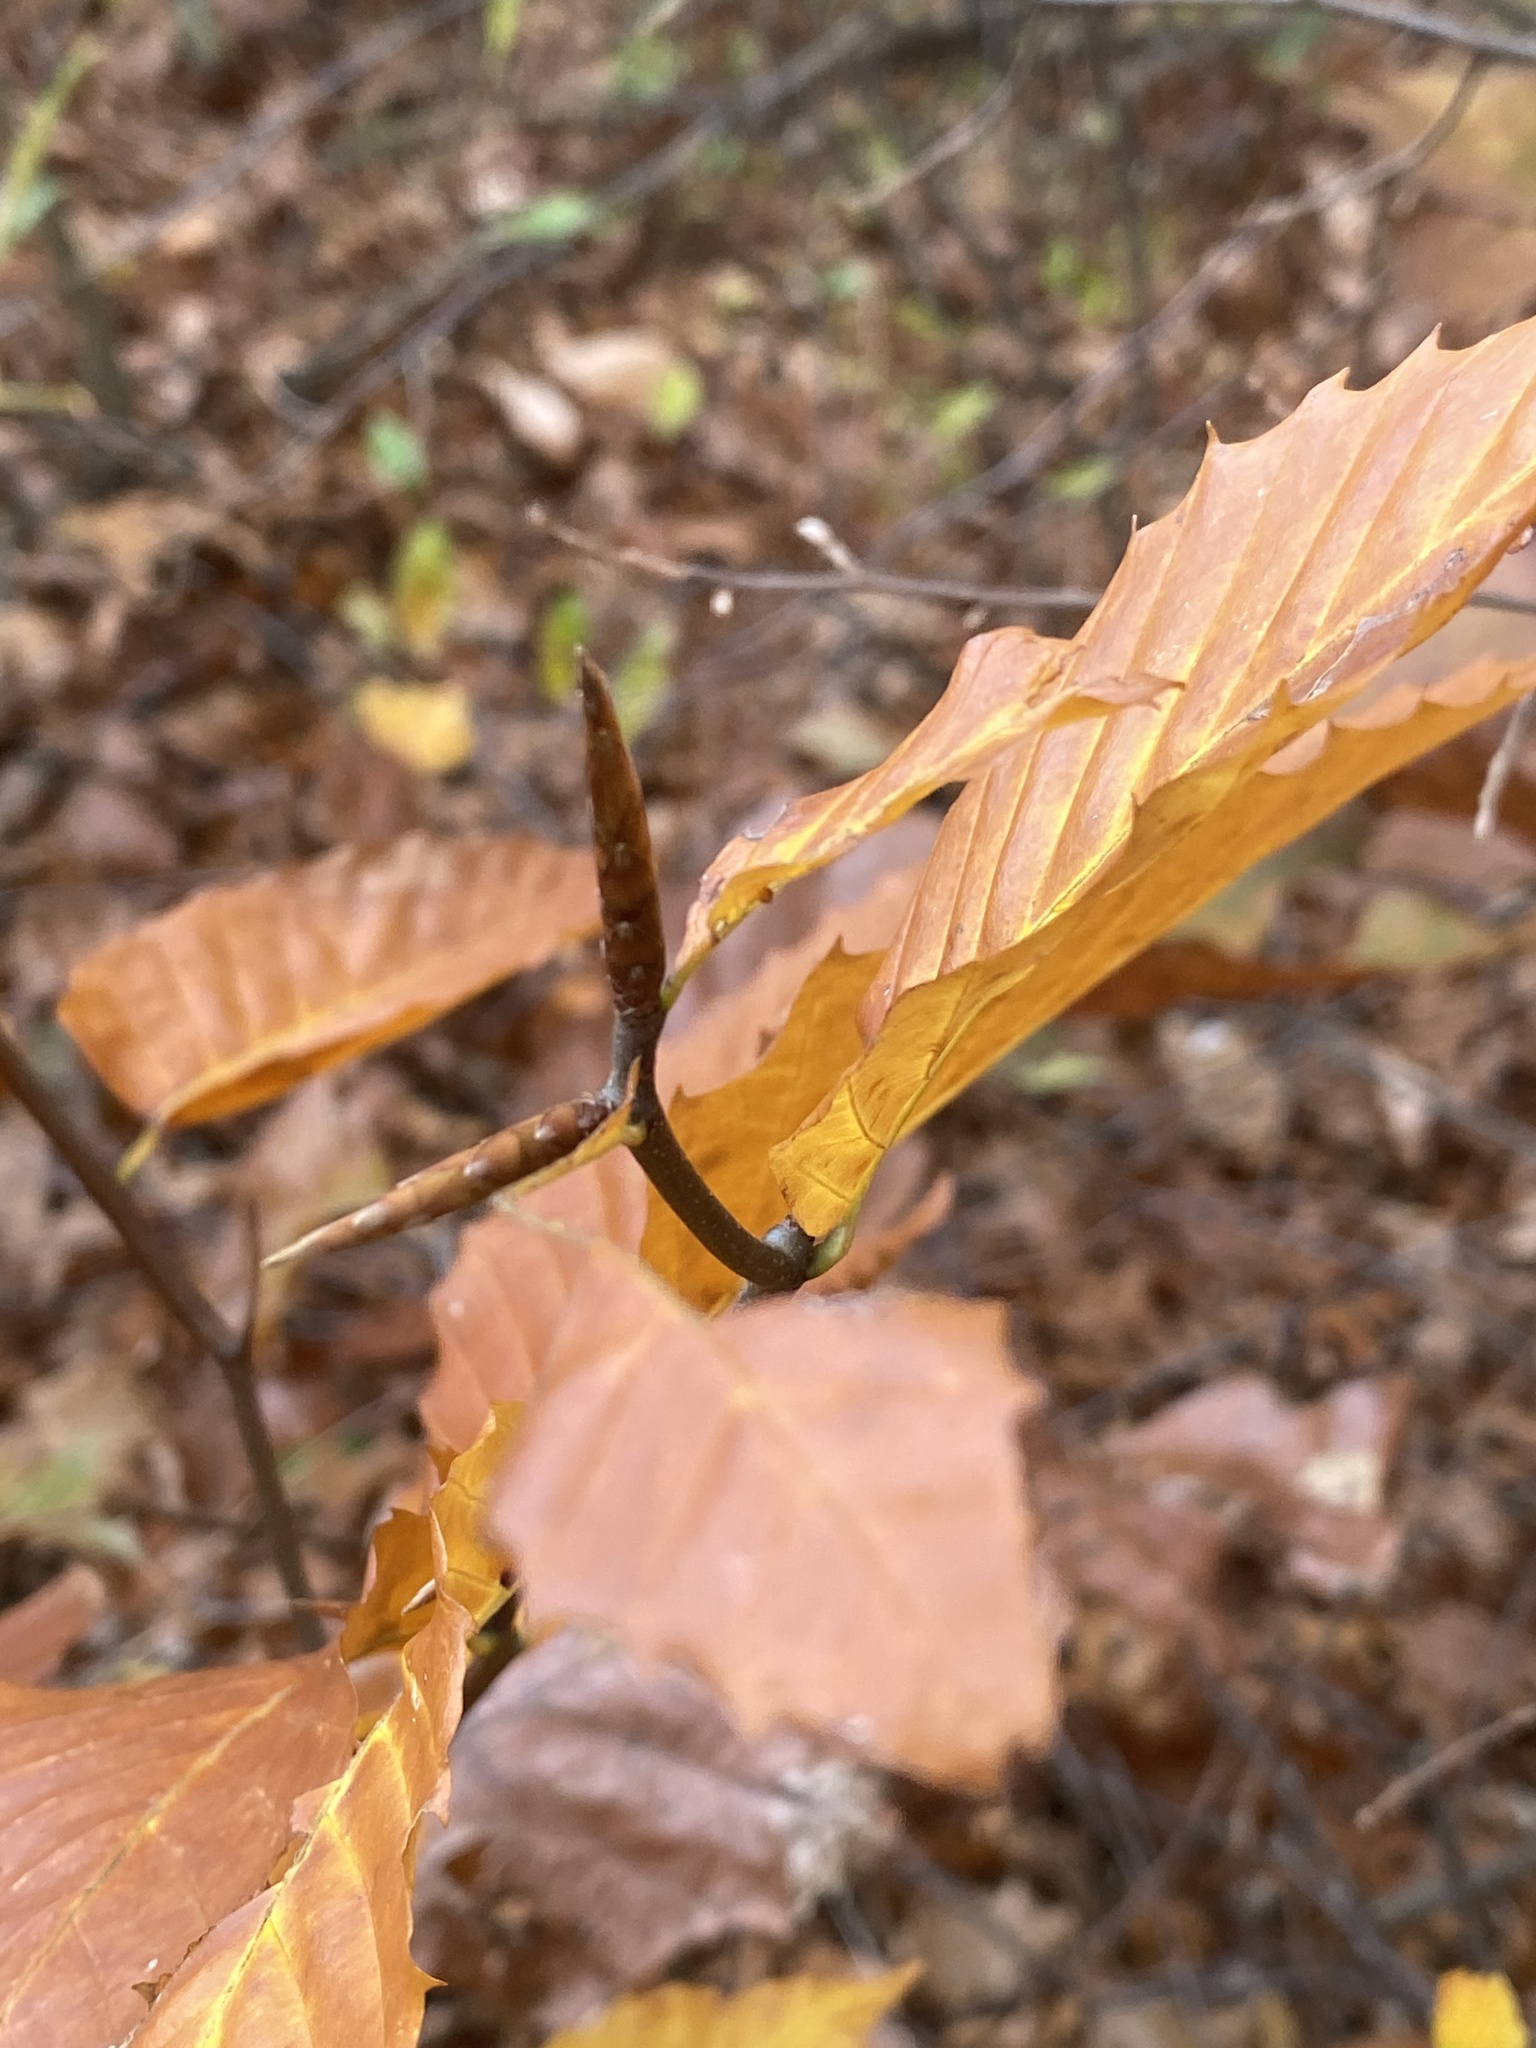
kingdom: Plantae
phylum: Tracheophyta
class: Magnoliopsida
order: Fagales
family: Fagaceae
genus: Fagus
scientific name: Fagus grandifolia
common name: American beech
